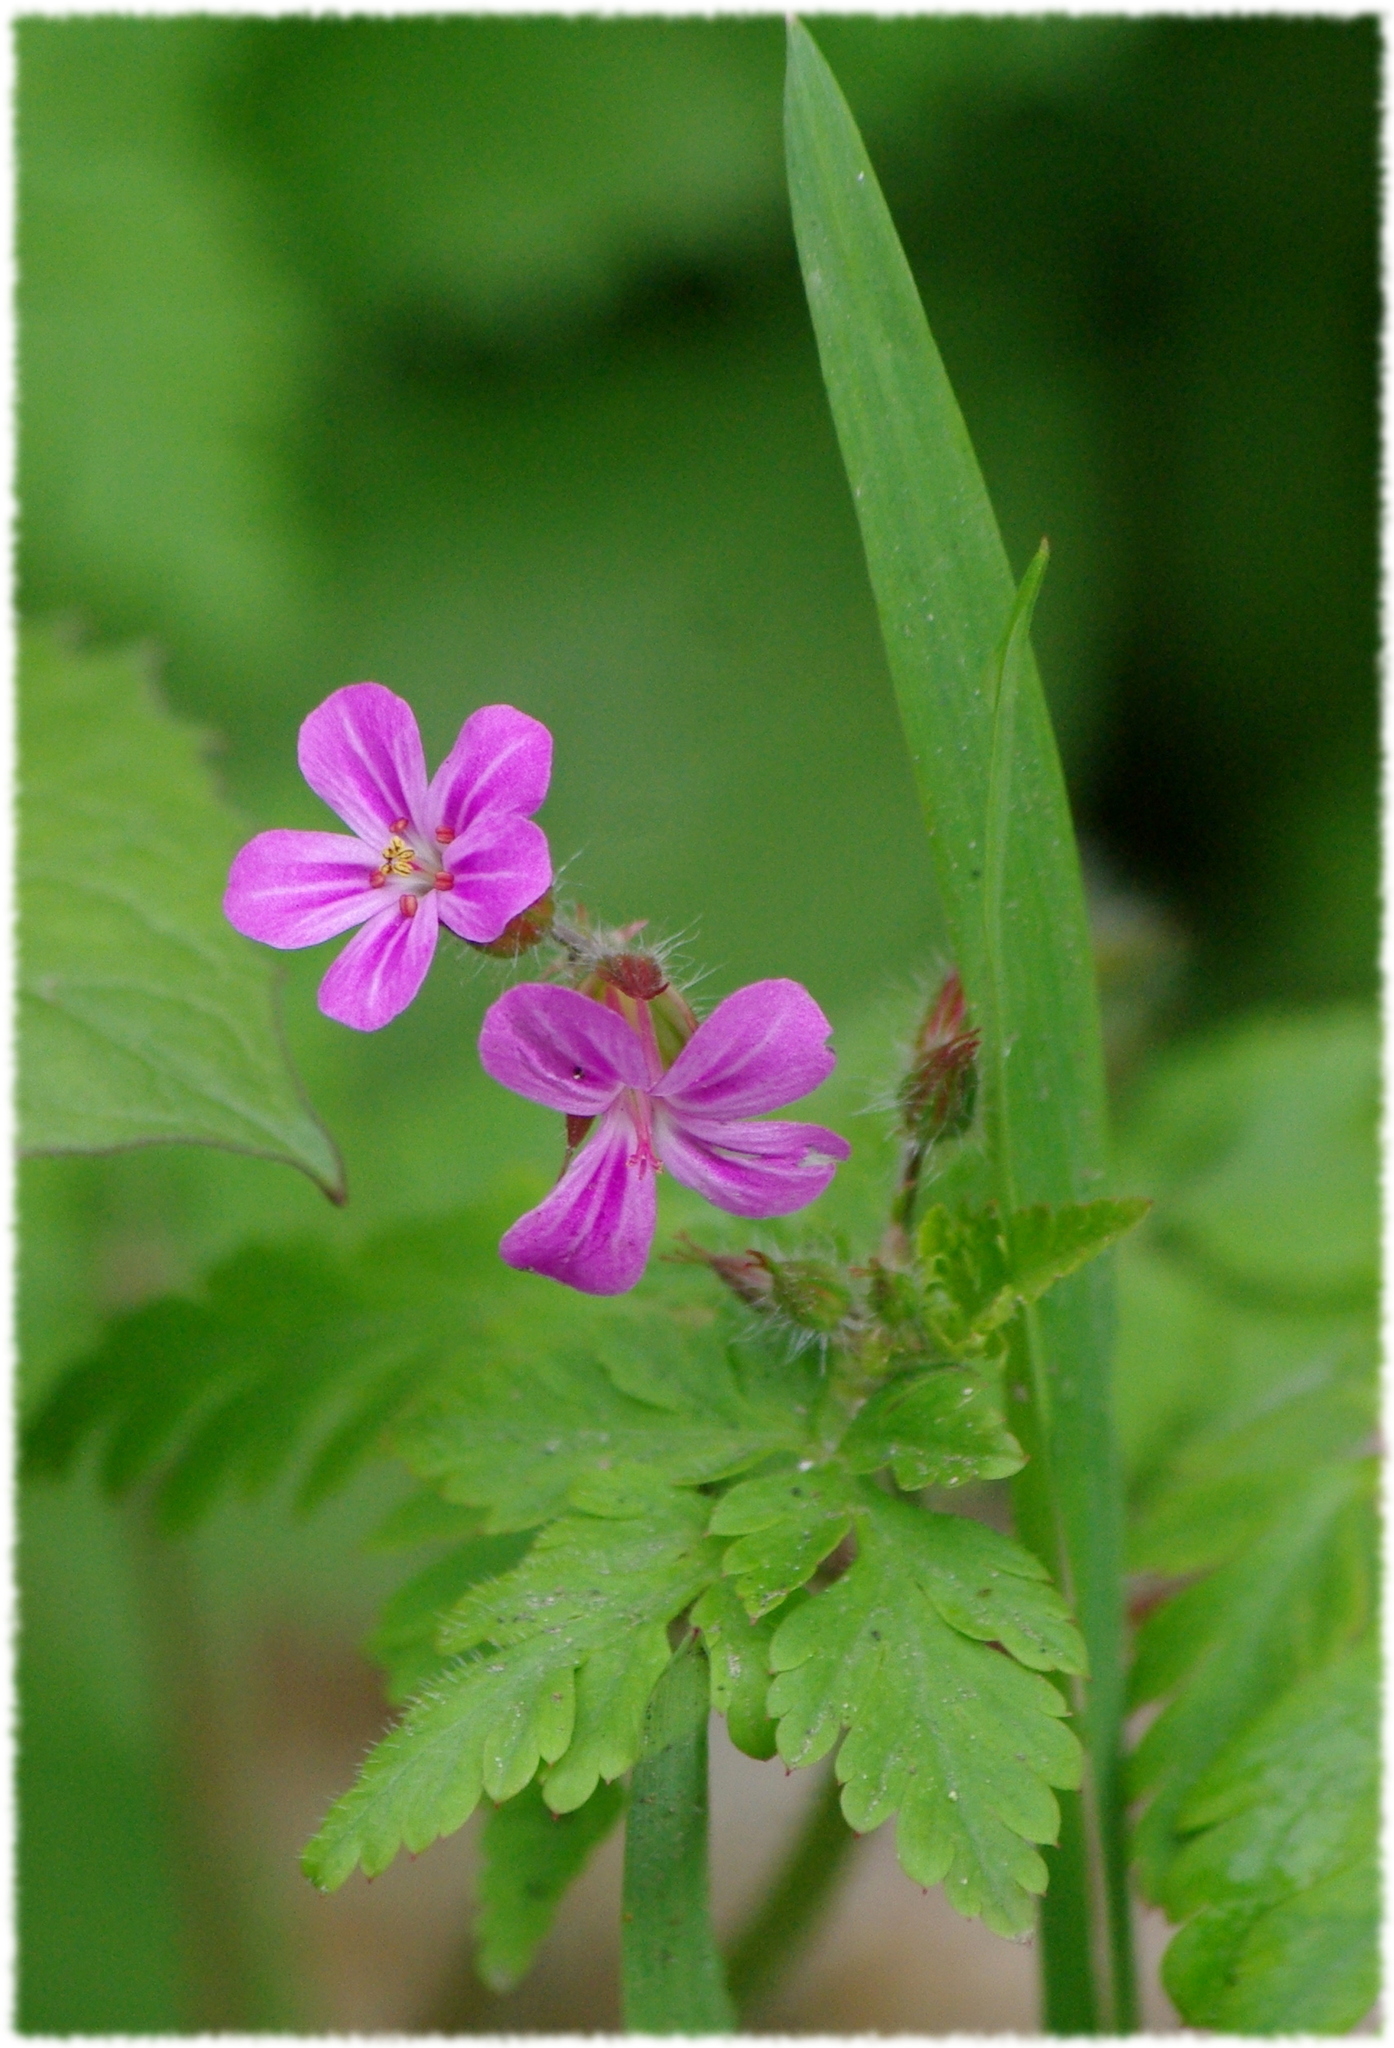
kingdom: Plantae
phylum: Tracheophyta
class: Magnoliopsida
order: Geraniales
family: Geraniaceae
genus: Geranium
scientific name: Geranium robertianum
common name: Herb-robert
